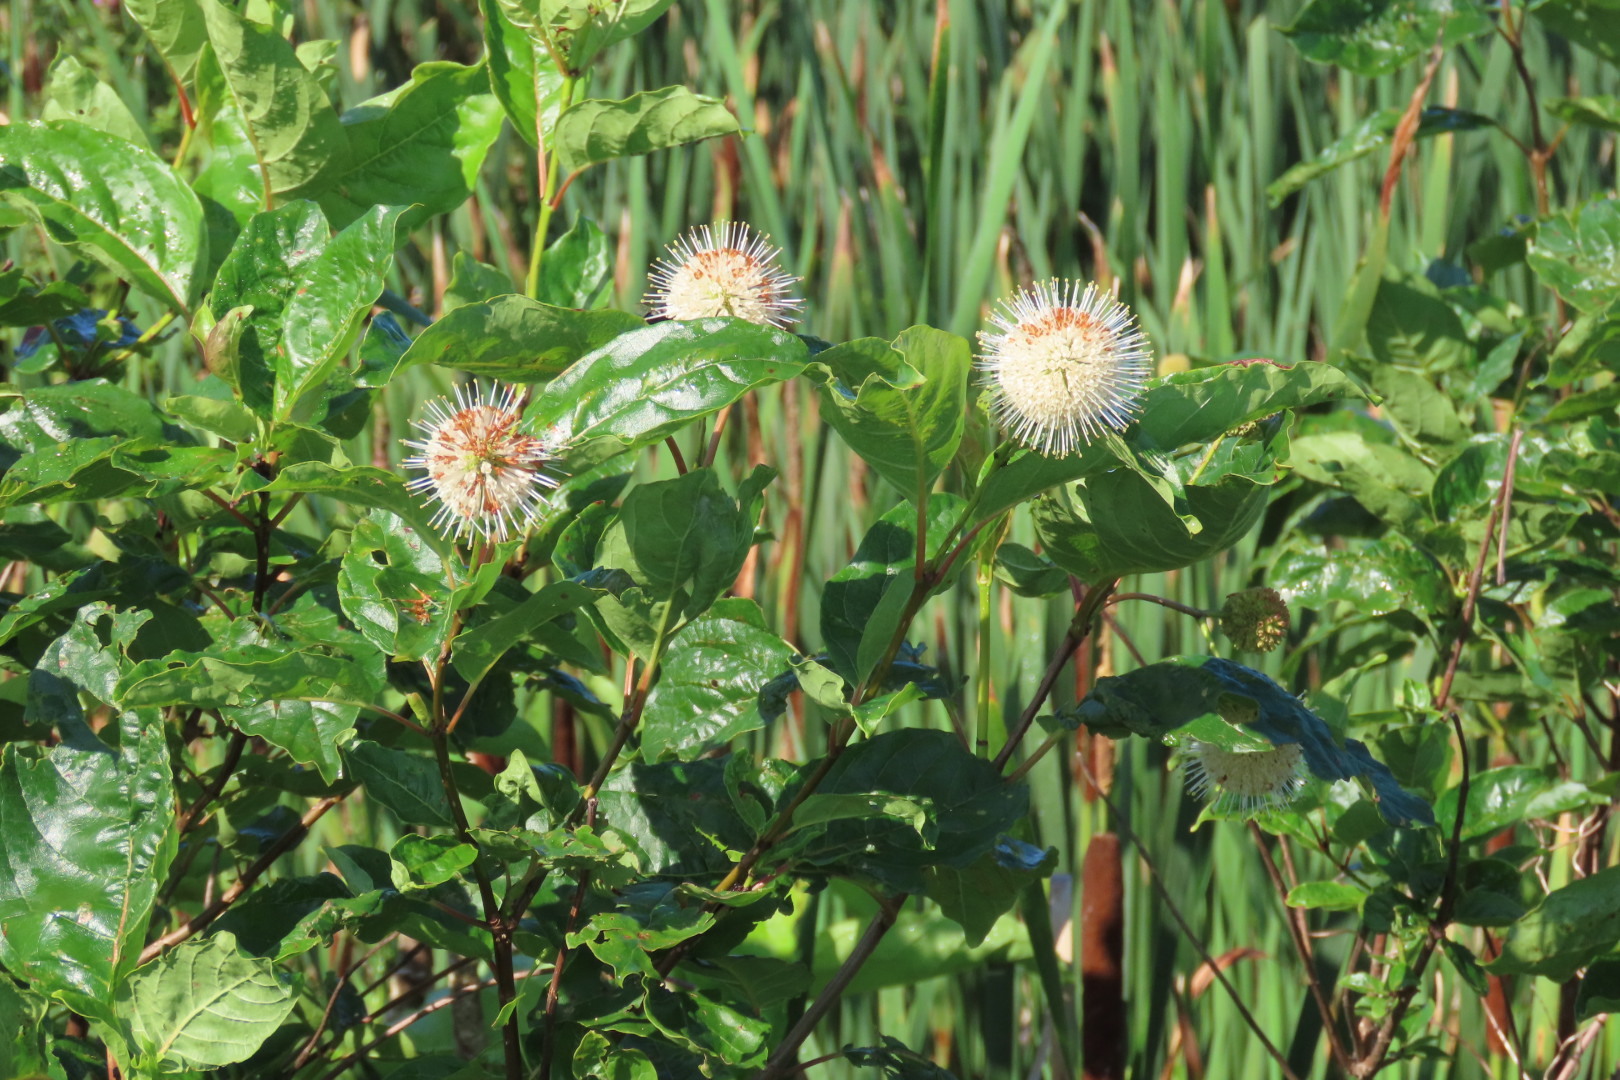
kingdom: Plantae
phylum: Tracheophyta
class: Magnoliopsida
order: Gentianales
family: Rubiaceae
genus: Cephalanthus
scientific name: Cephalanthus occidentalis
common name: Button-willow
